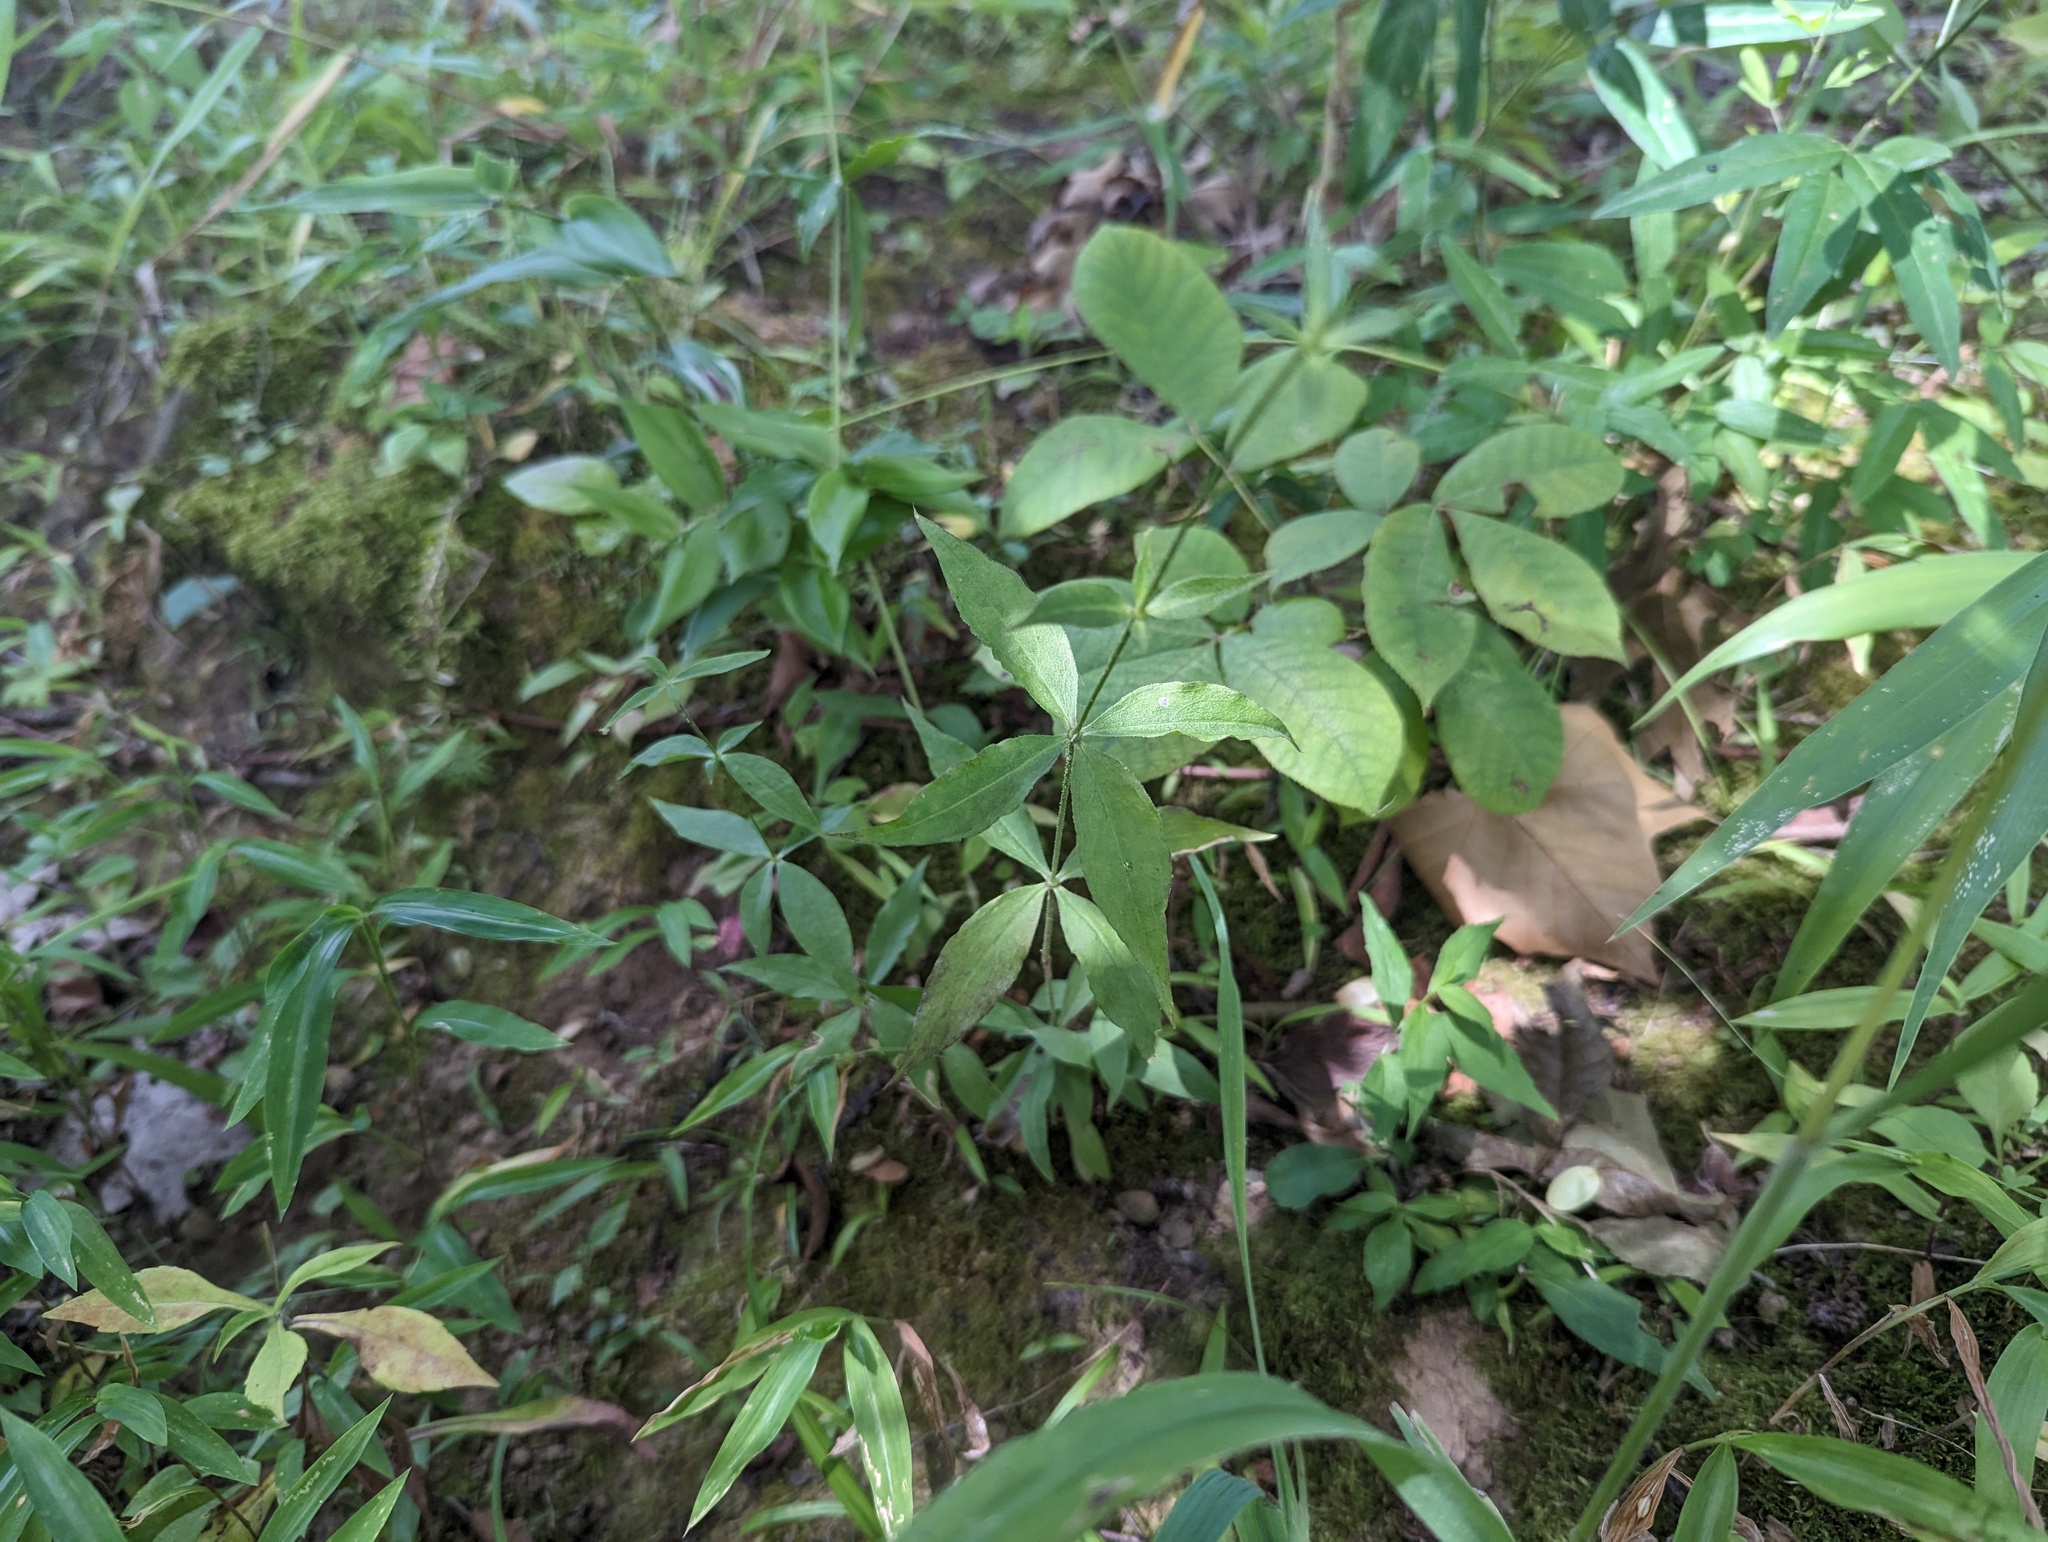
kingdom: Plantae
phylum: Tracheophyta
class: Magnoliopsida
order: Caryophyllales
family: Caryophyllaceae
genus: Silene
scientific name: Silene stellata
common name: Starry campion
